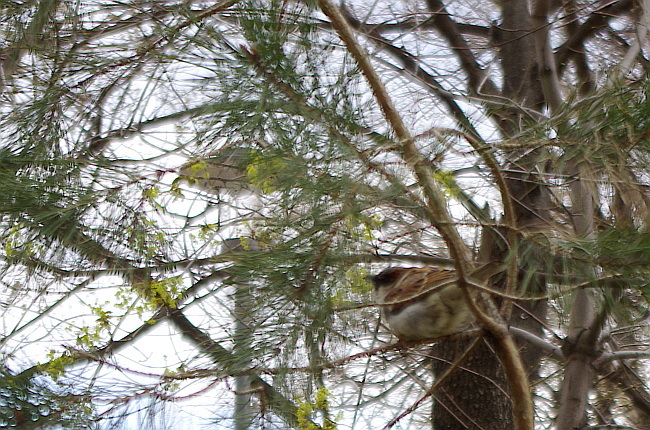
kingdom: Animalia
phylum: Chordata
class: Aves
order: Passeriformes
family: Passeridae
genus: Passer
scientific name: Passer domesticus
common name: House sparrow
